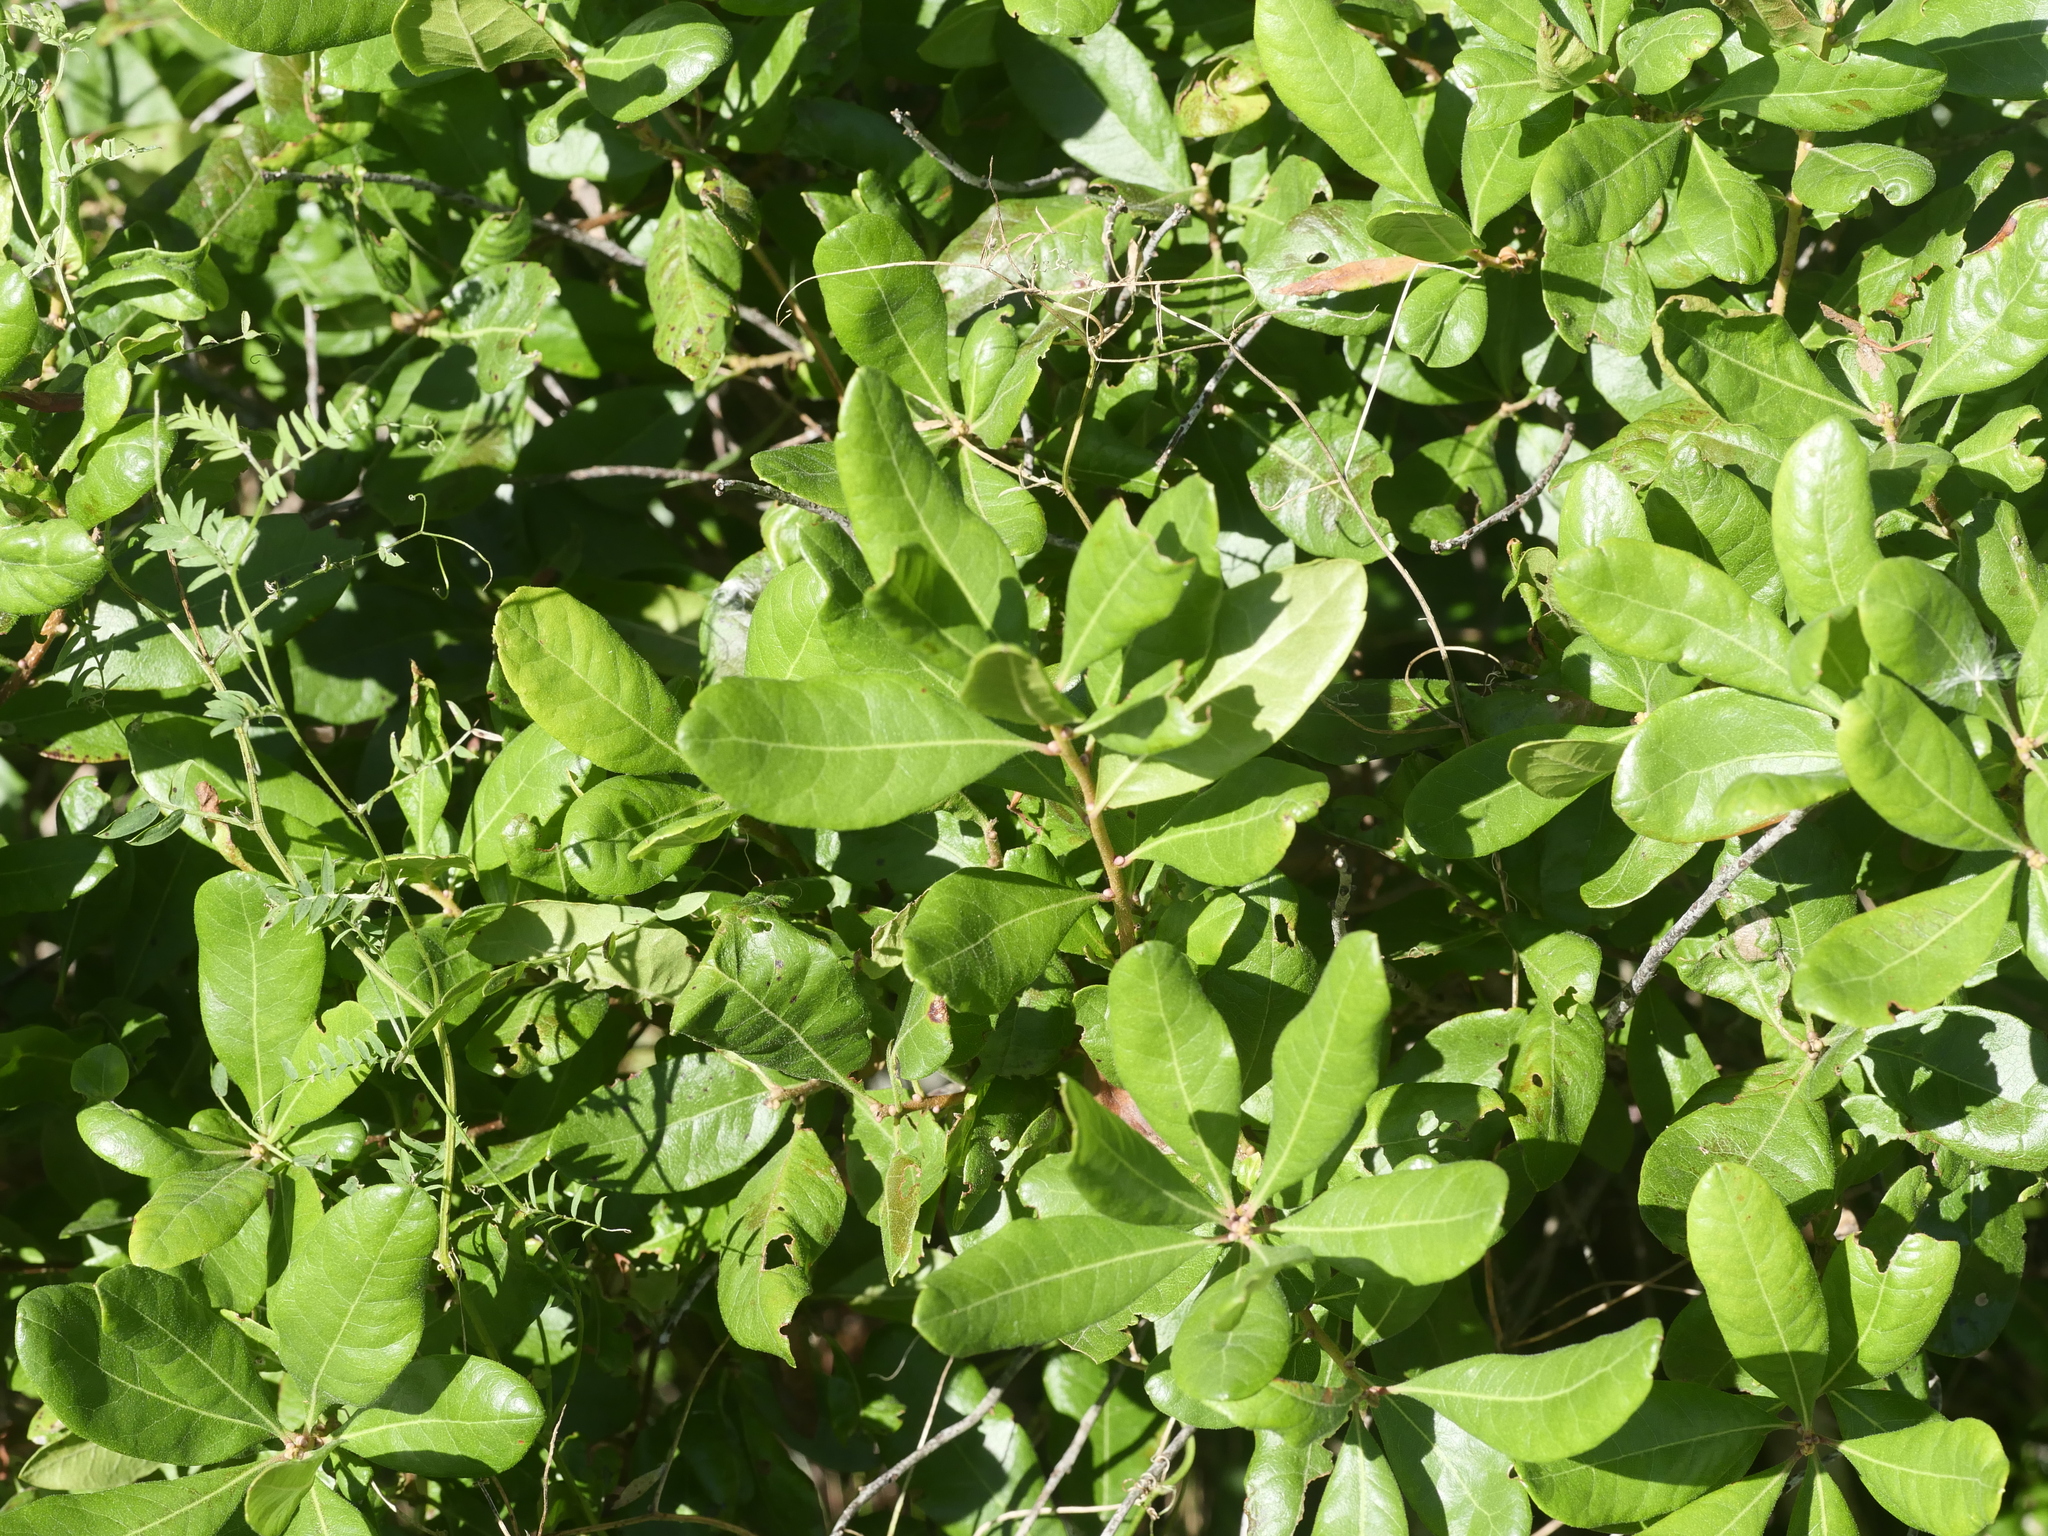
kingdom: Plantae
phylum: Tracheophyta
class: Magnoliopsida
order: Fagales
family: Myricaceae
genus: Morella
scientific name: Morella pensylvanica
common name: Northern bayberry
